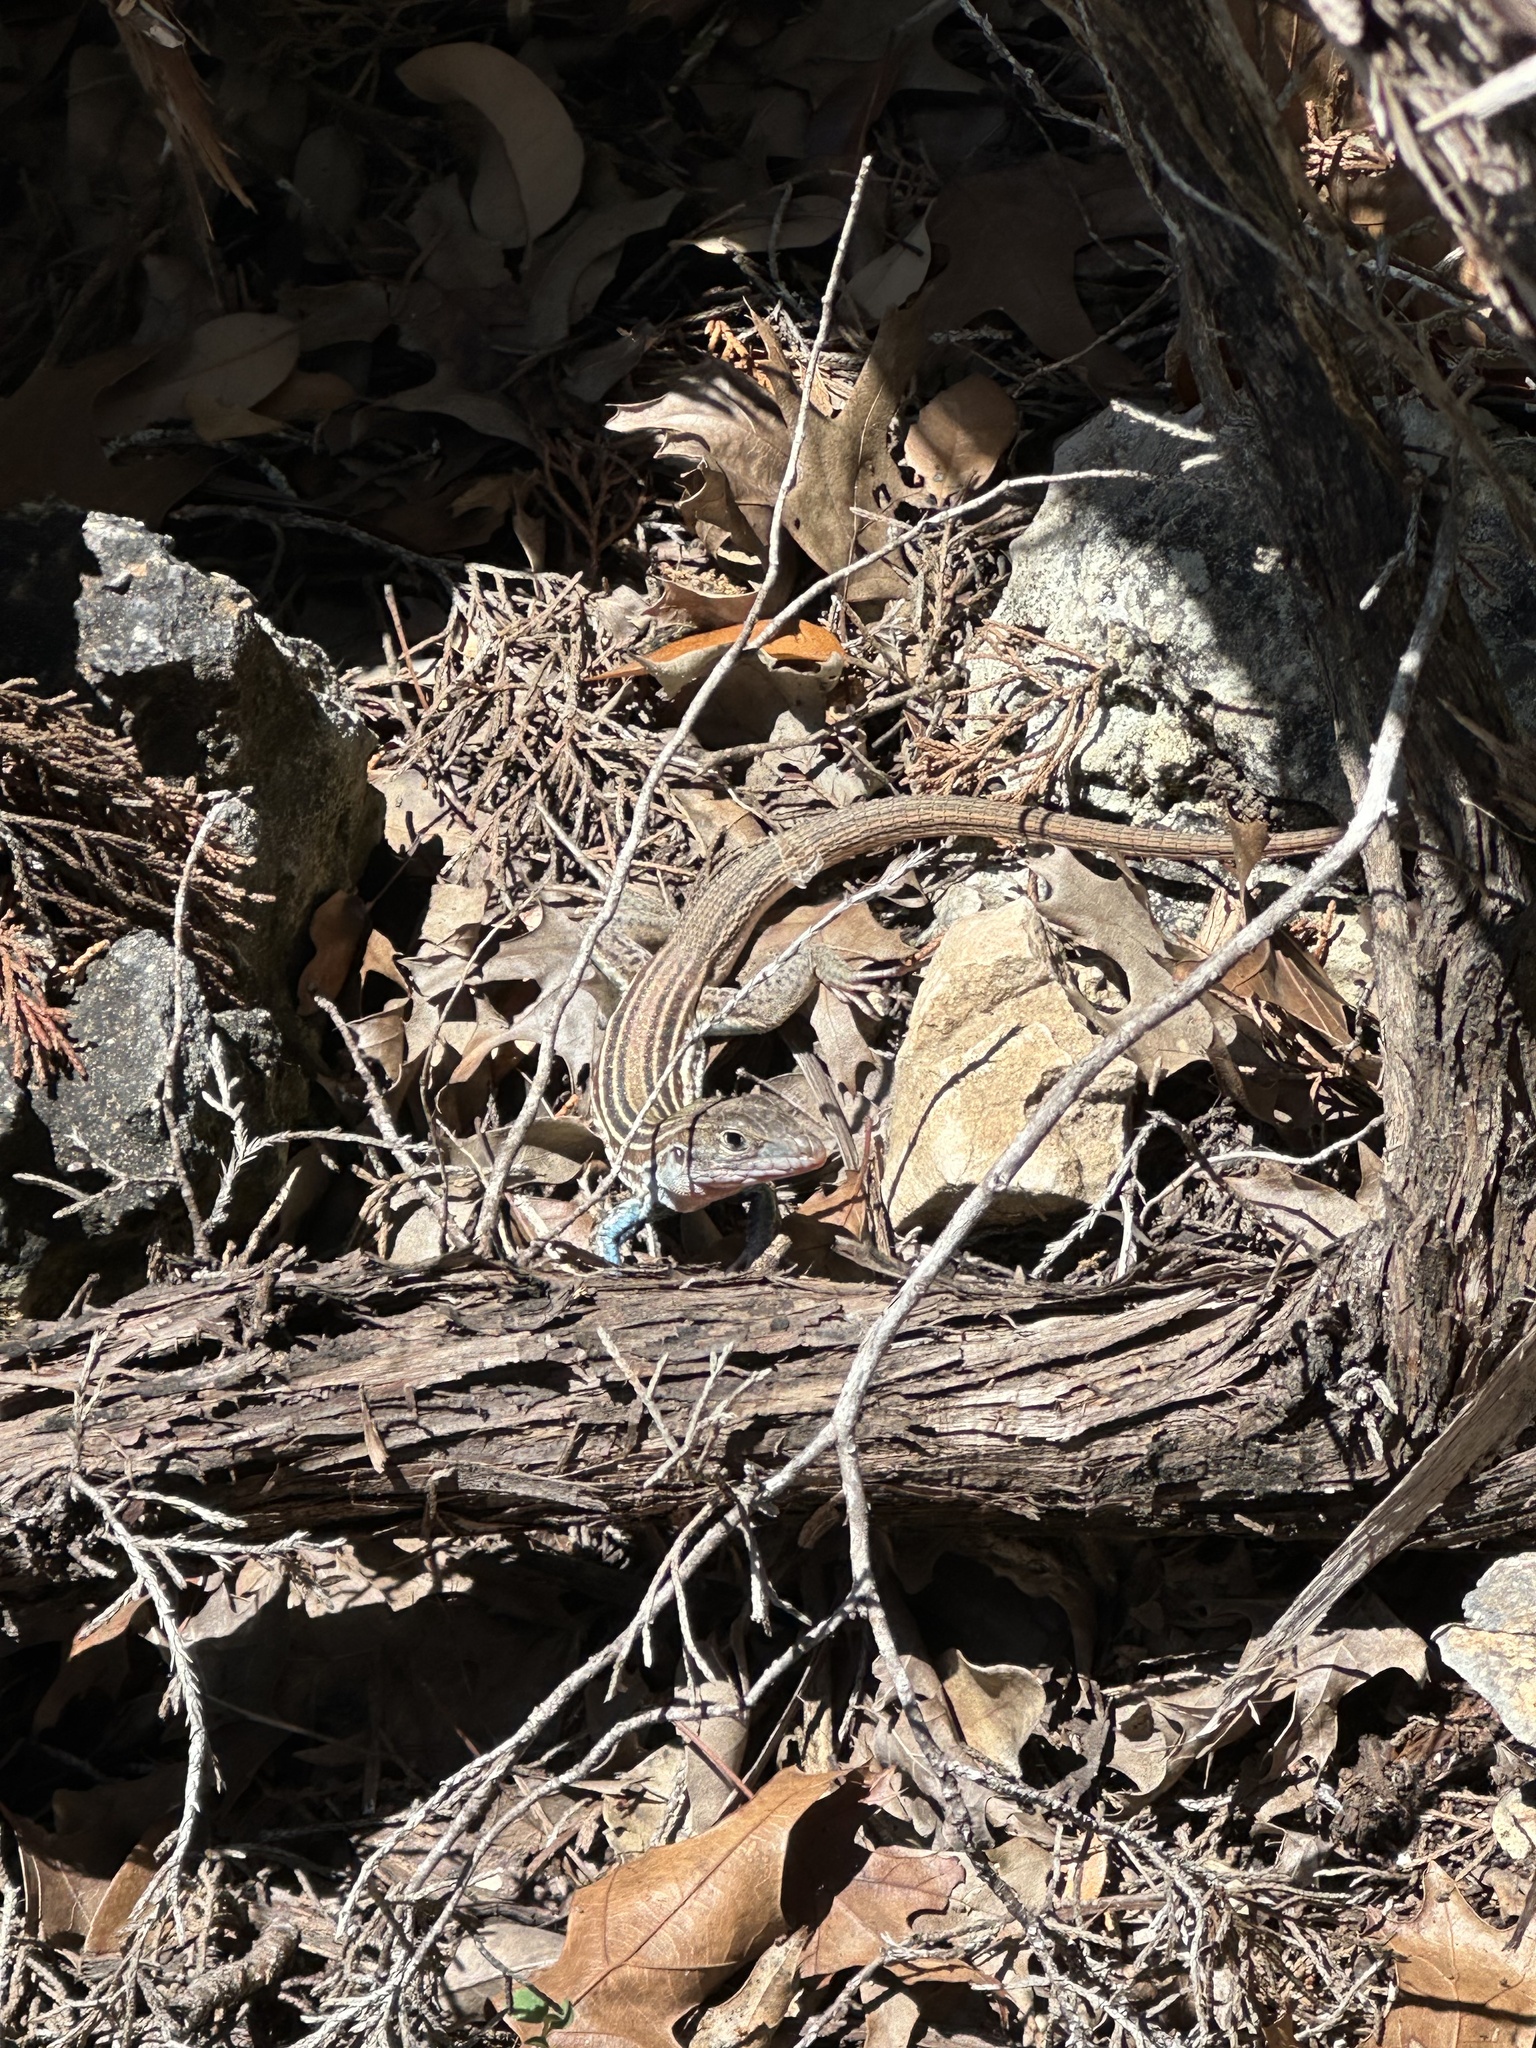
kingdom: Animalia
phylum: Chordata
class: Squamata
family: Teiidae
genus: Aspidoscelis
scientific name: Aspidoscelis gularis
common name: Eastern spotted whiptail
